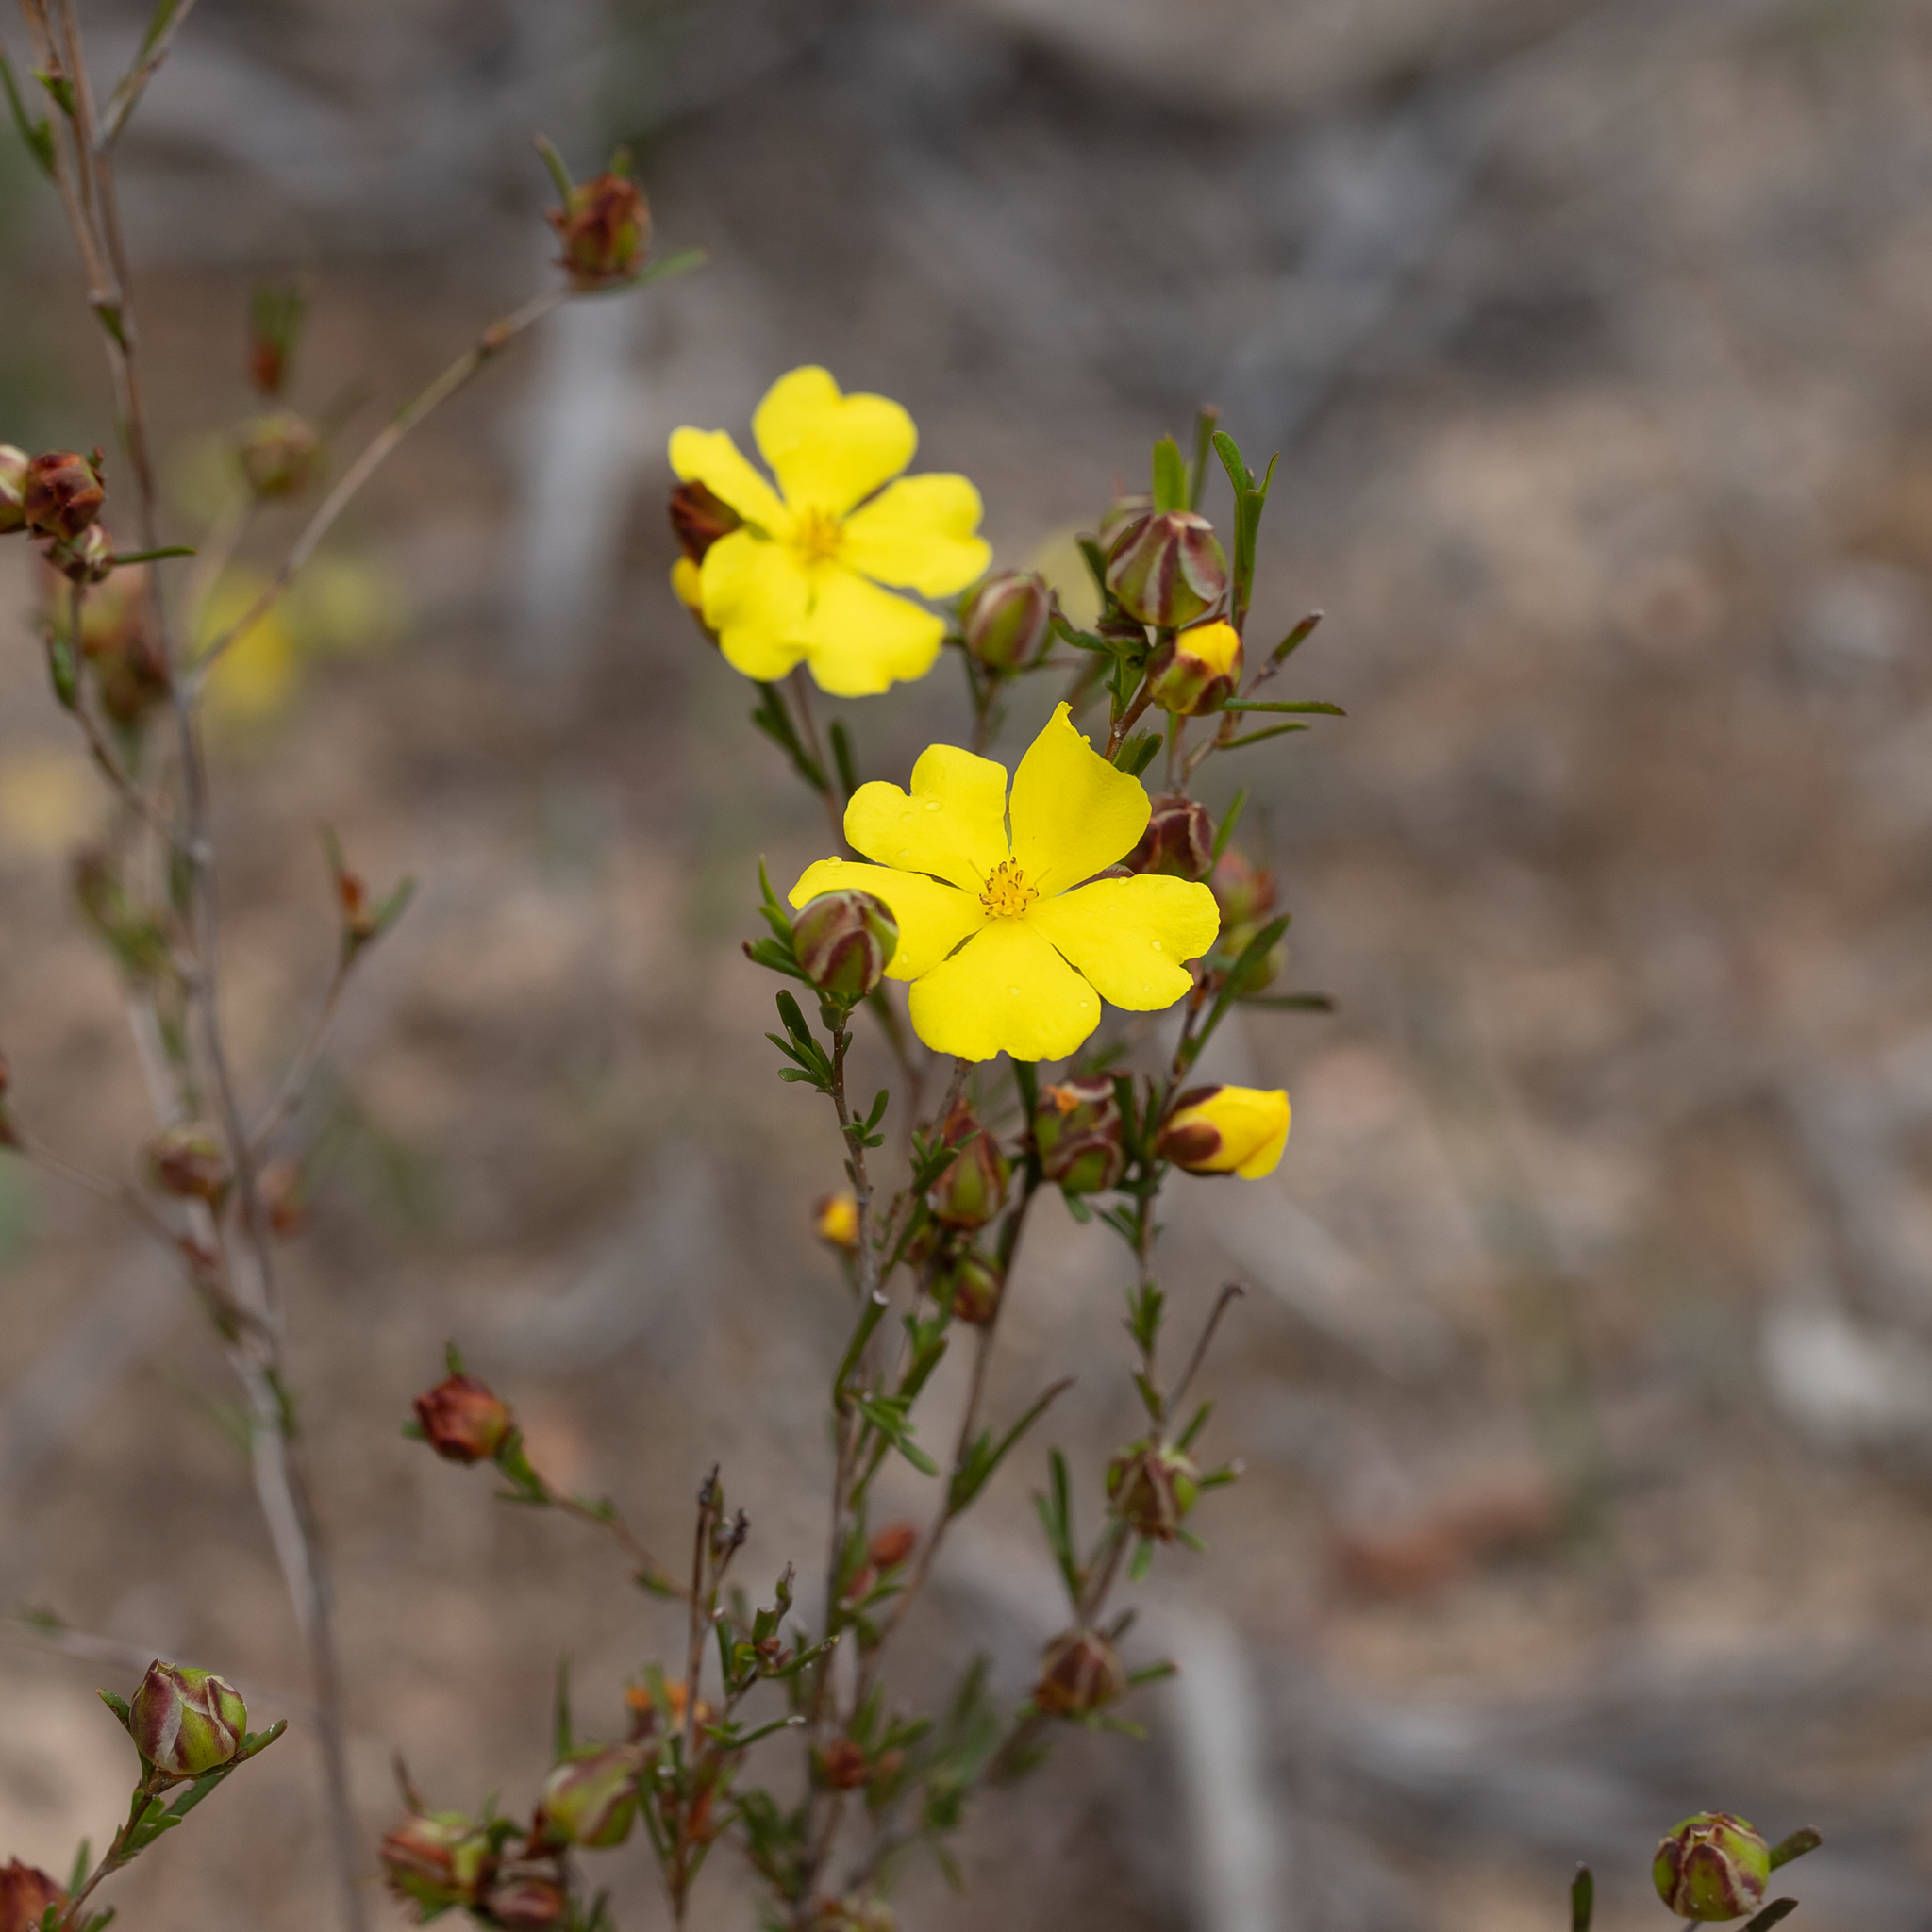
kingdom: Plantae
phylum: Tracheophyta
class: Magnoliopsida
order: Dilleniales
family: Dilleniaceae
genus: Hibbertia
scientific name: Hibbertia virgata
